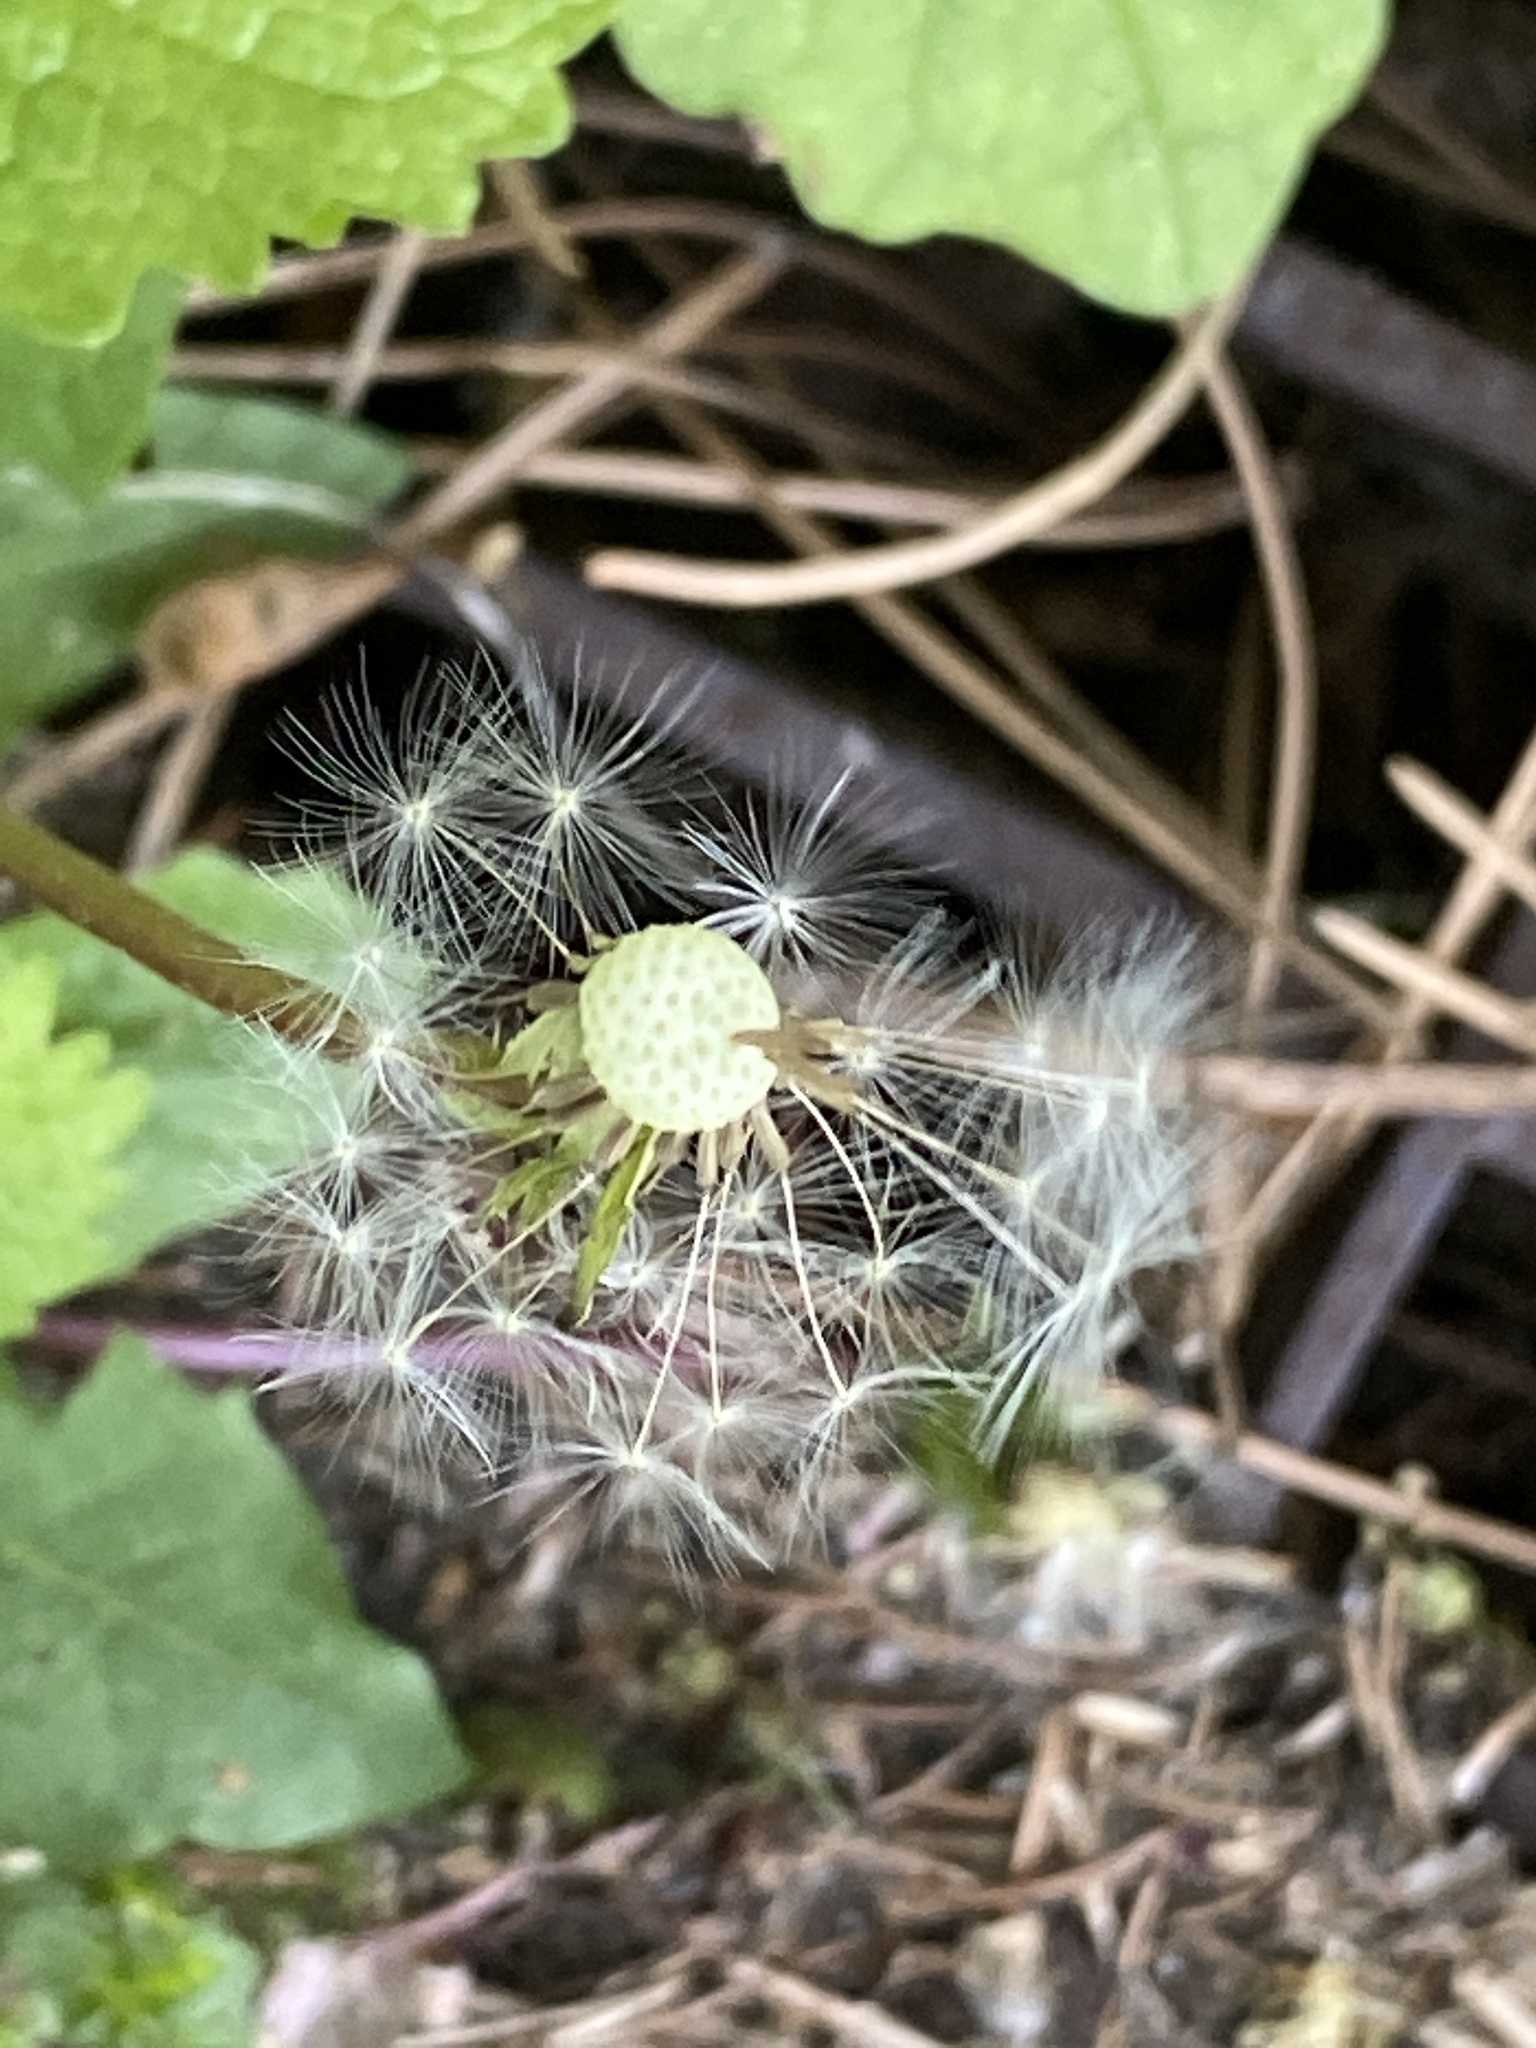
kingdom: Plantae
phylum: Tracheophyta
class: Magnoliopsida
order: Asterales
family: Asteraceae
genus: Taraxacum
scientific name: Taraxacum officinale
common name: Common dandelion
